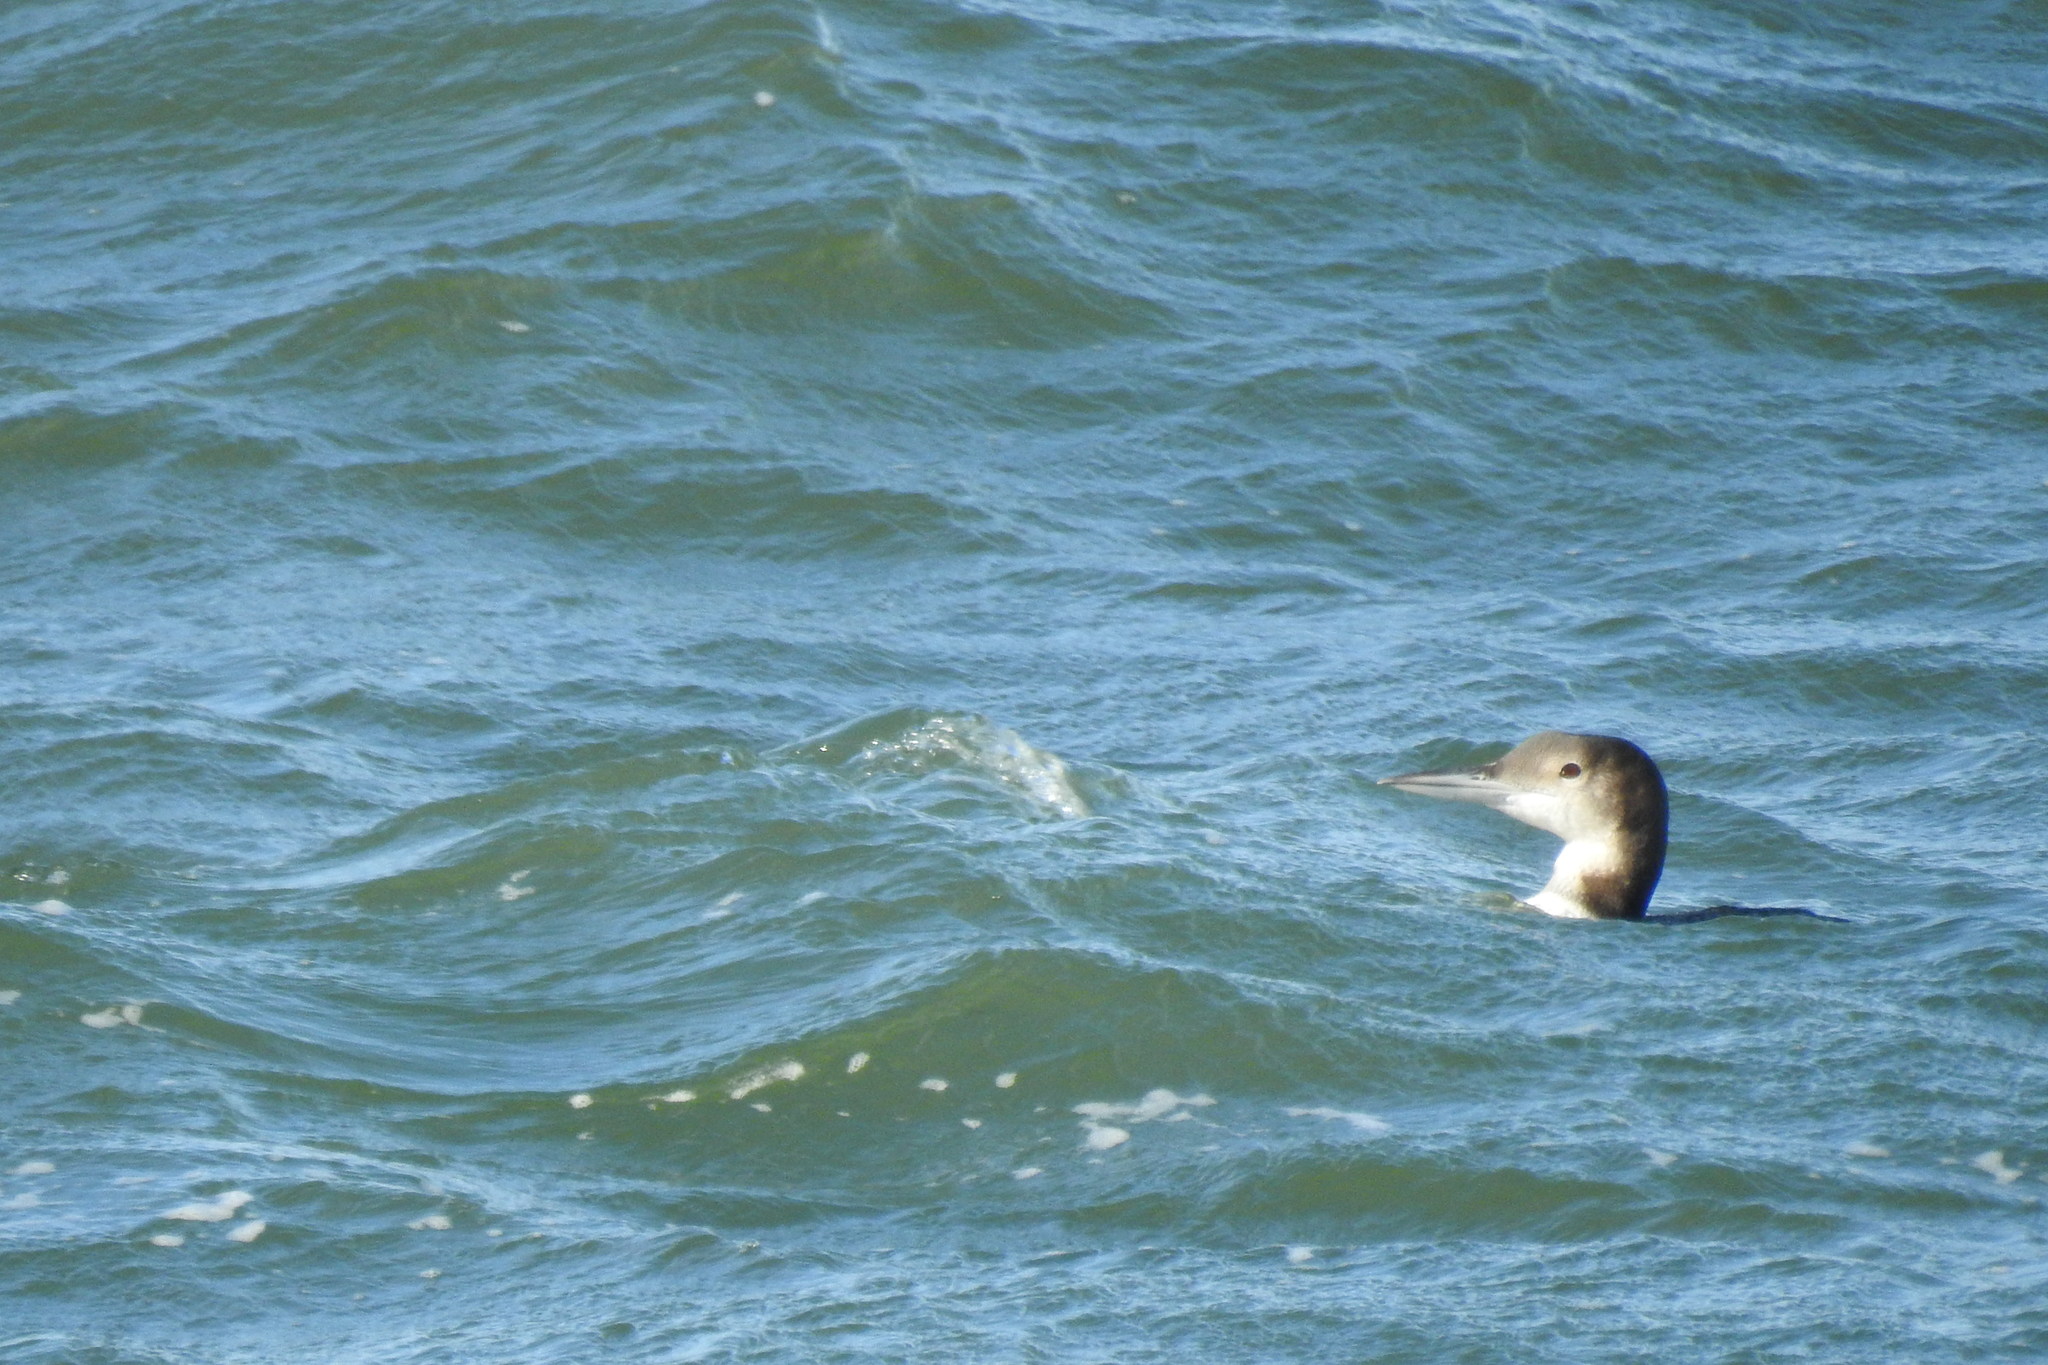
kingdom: Animalia
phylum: Chordata
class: Aves
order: Gaviiformes
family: Gaviidae
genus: Gavia
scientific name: Gavia immer
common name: Common loon
